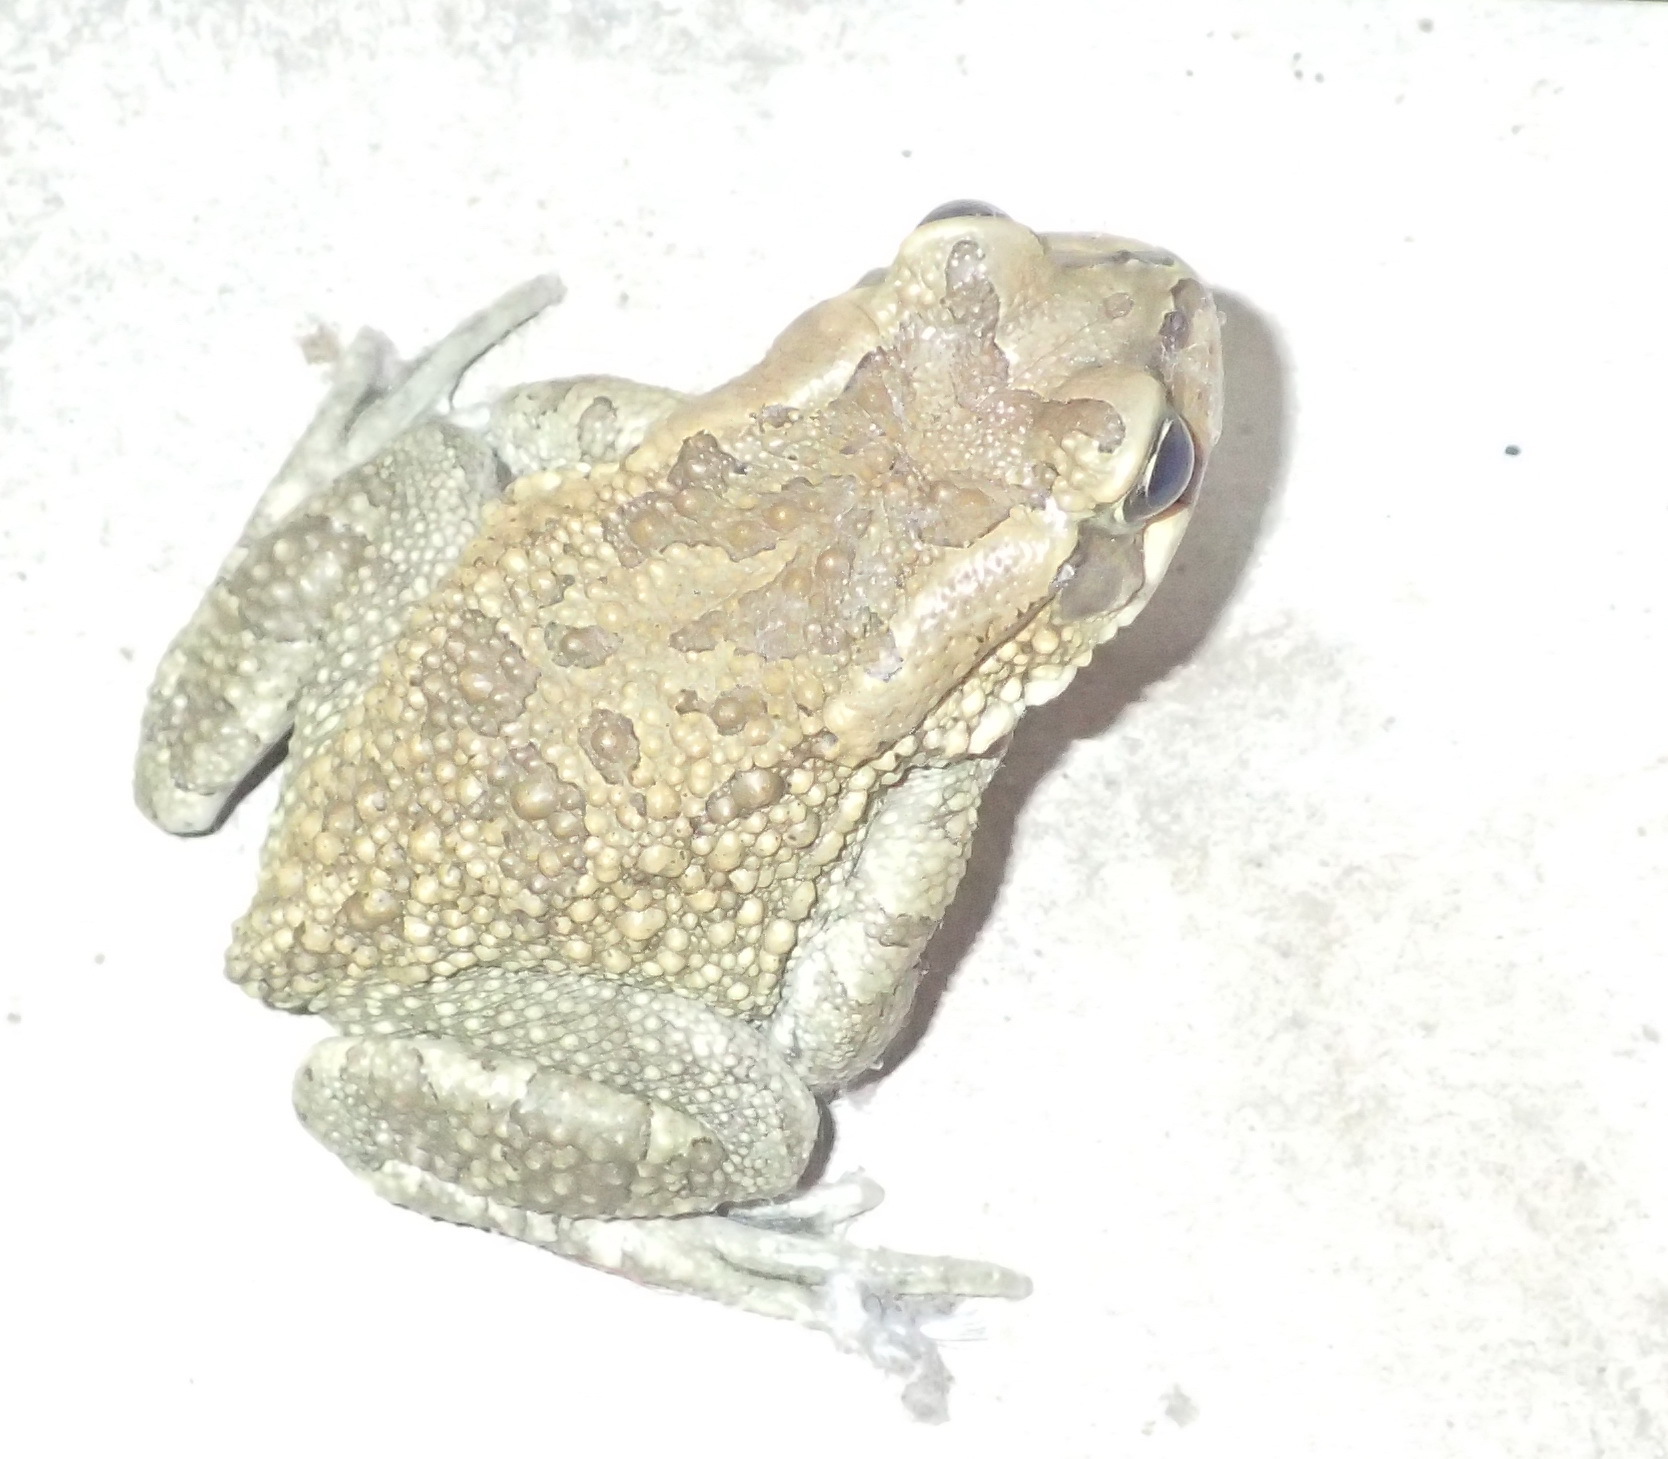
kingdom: Animalia
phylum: Chordata
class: Amphibia
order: Anura
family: Bufonidae
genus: Sclerophrys
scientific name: Sclerophrys capensis
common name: Ranger’s toad
